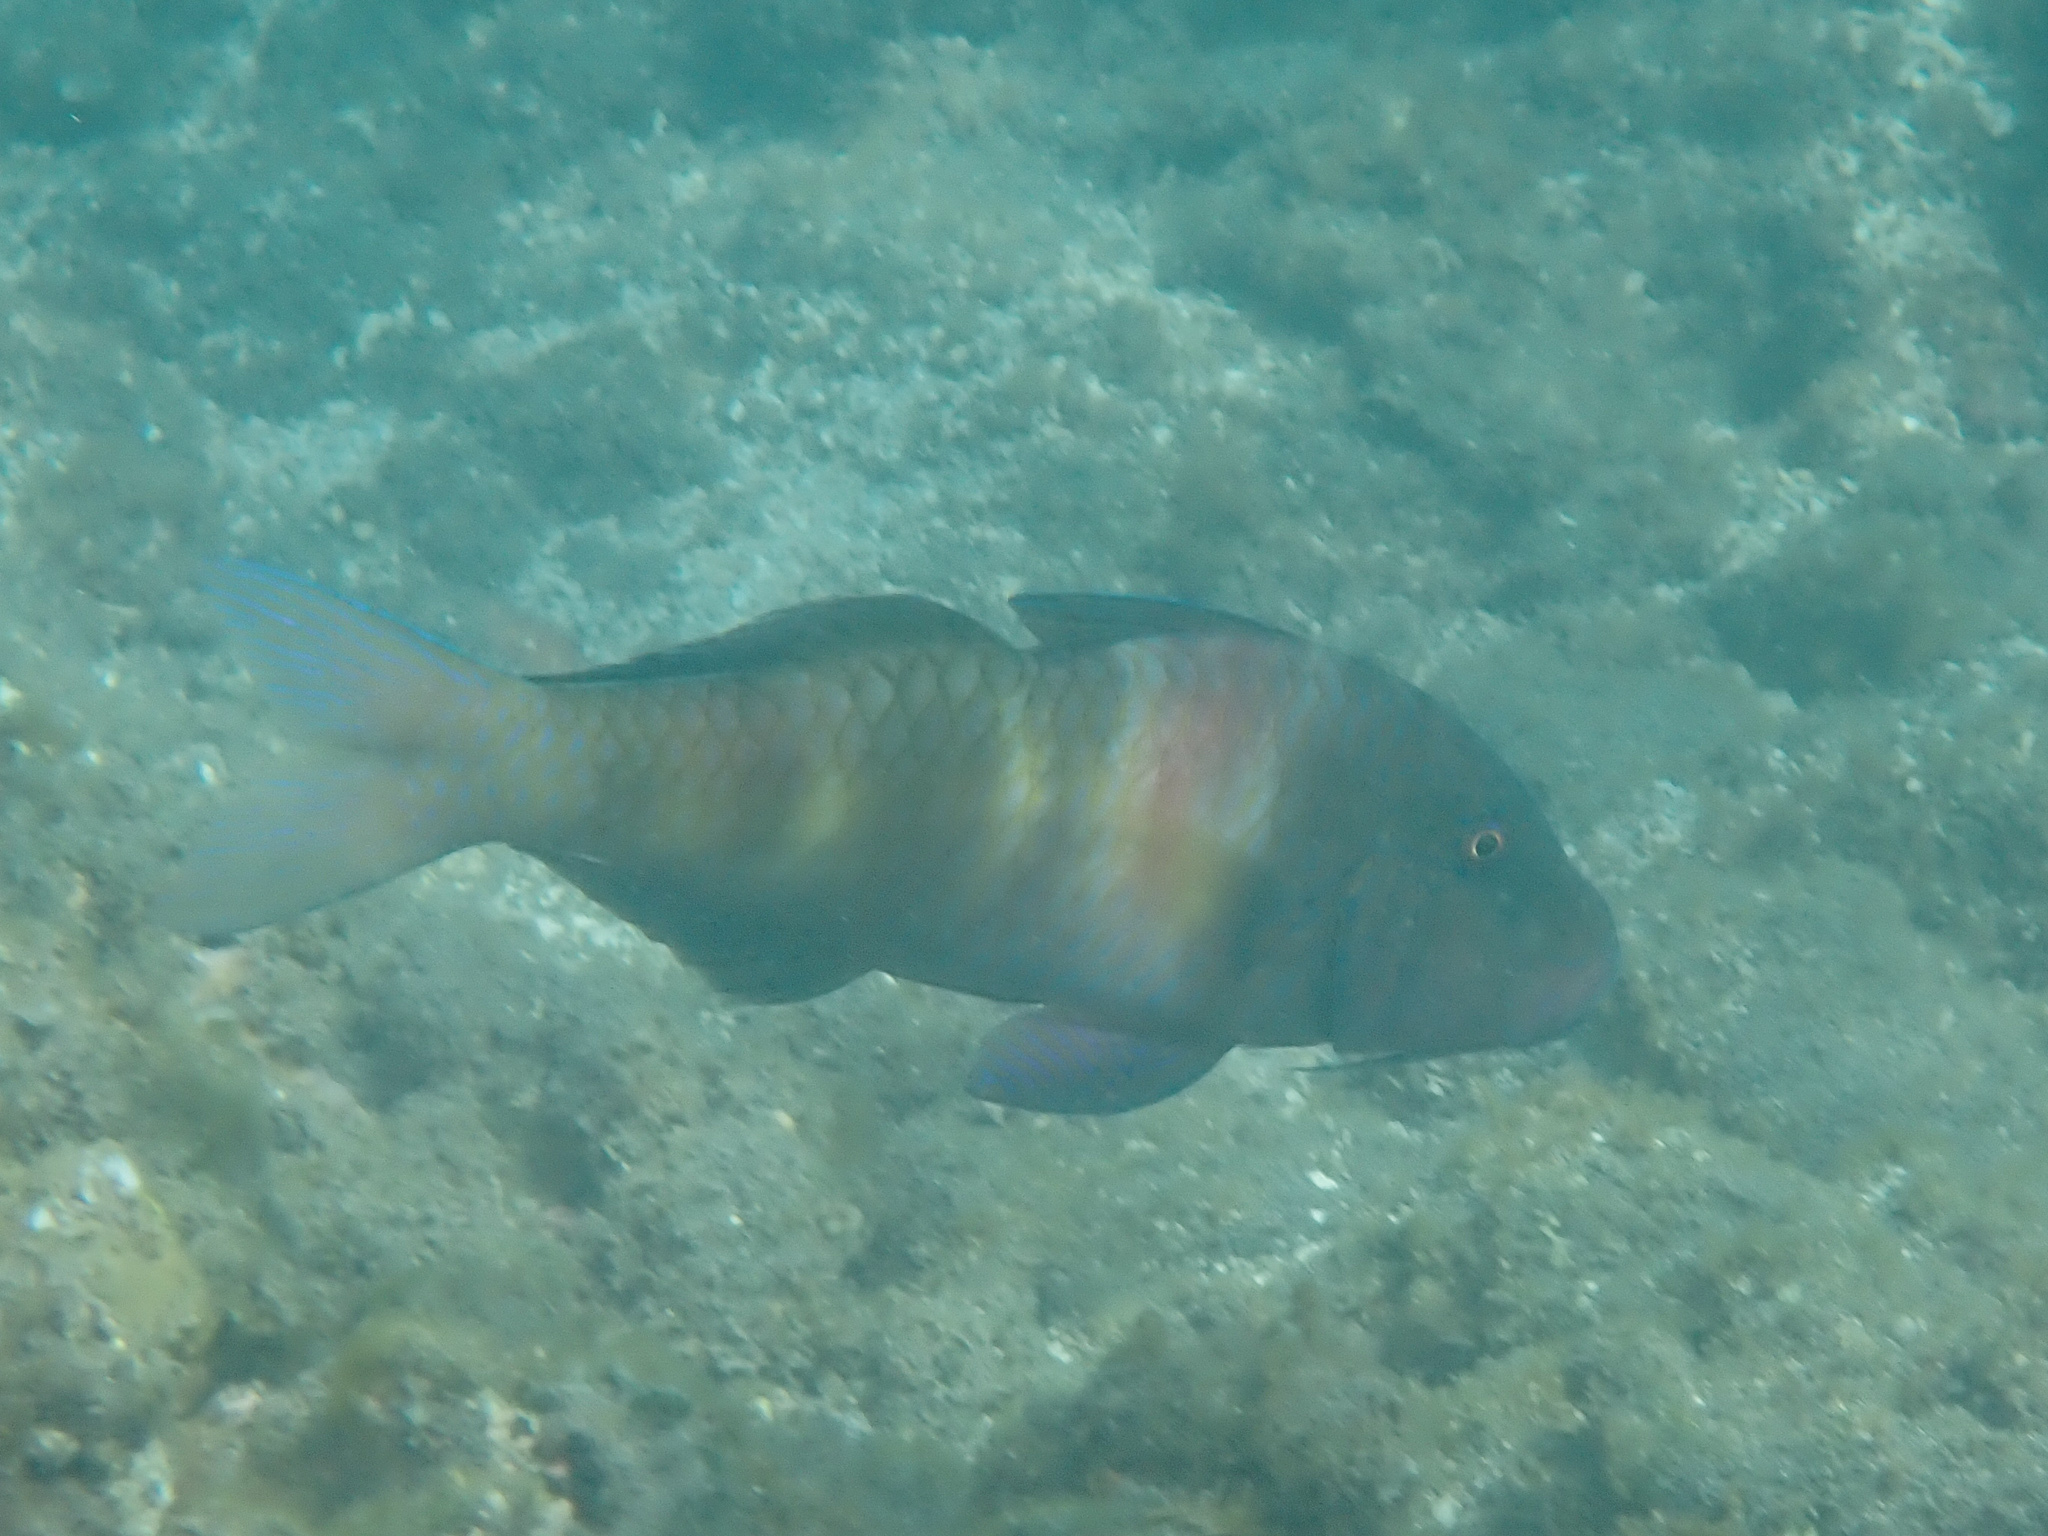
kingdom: Animalia
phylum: Chordata
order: Perciformes
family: Mullidae
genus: Parupeneus
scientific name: Parupeneus multifasciatus
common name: Manybar goatfish
